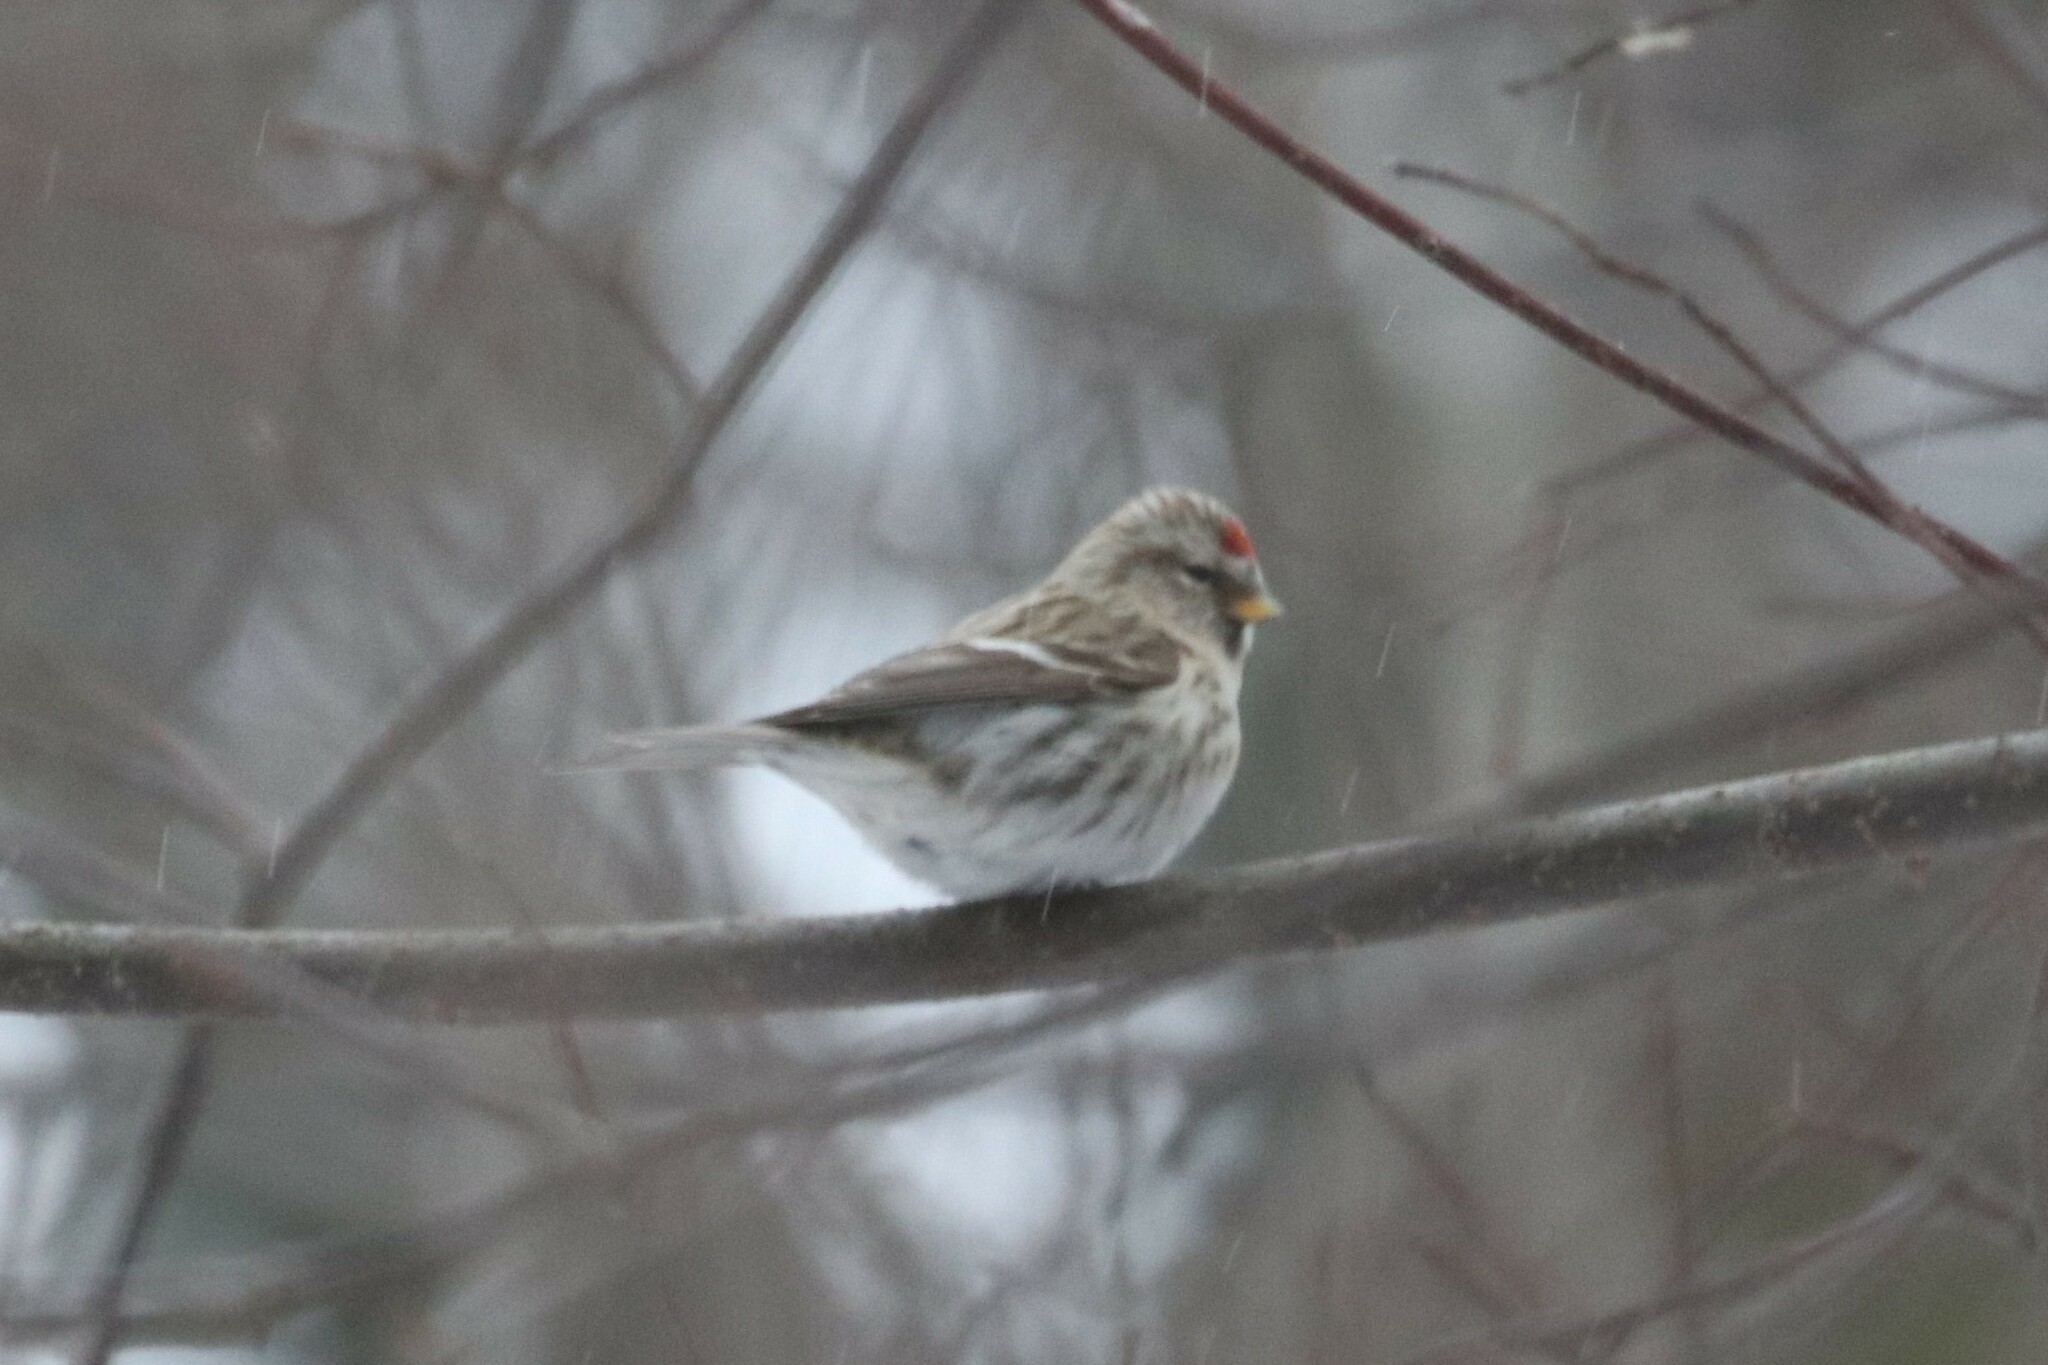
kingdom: Animalia
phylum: Chordata
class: Aves
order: Passeriformes
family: Fringillidae
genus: Acanthis
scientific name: Acanthis flammea
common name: Common redpoll
